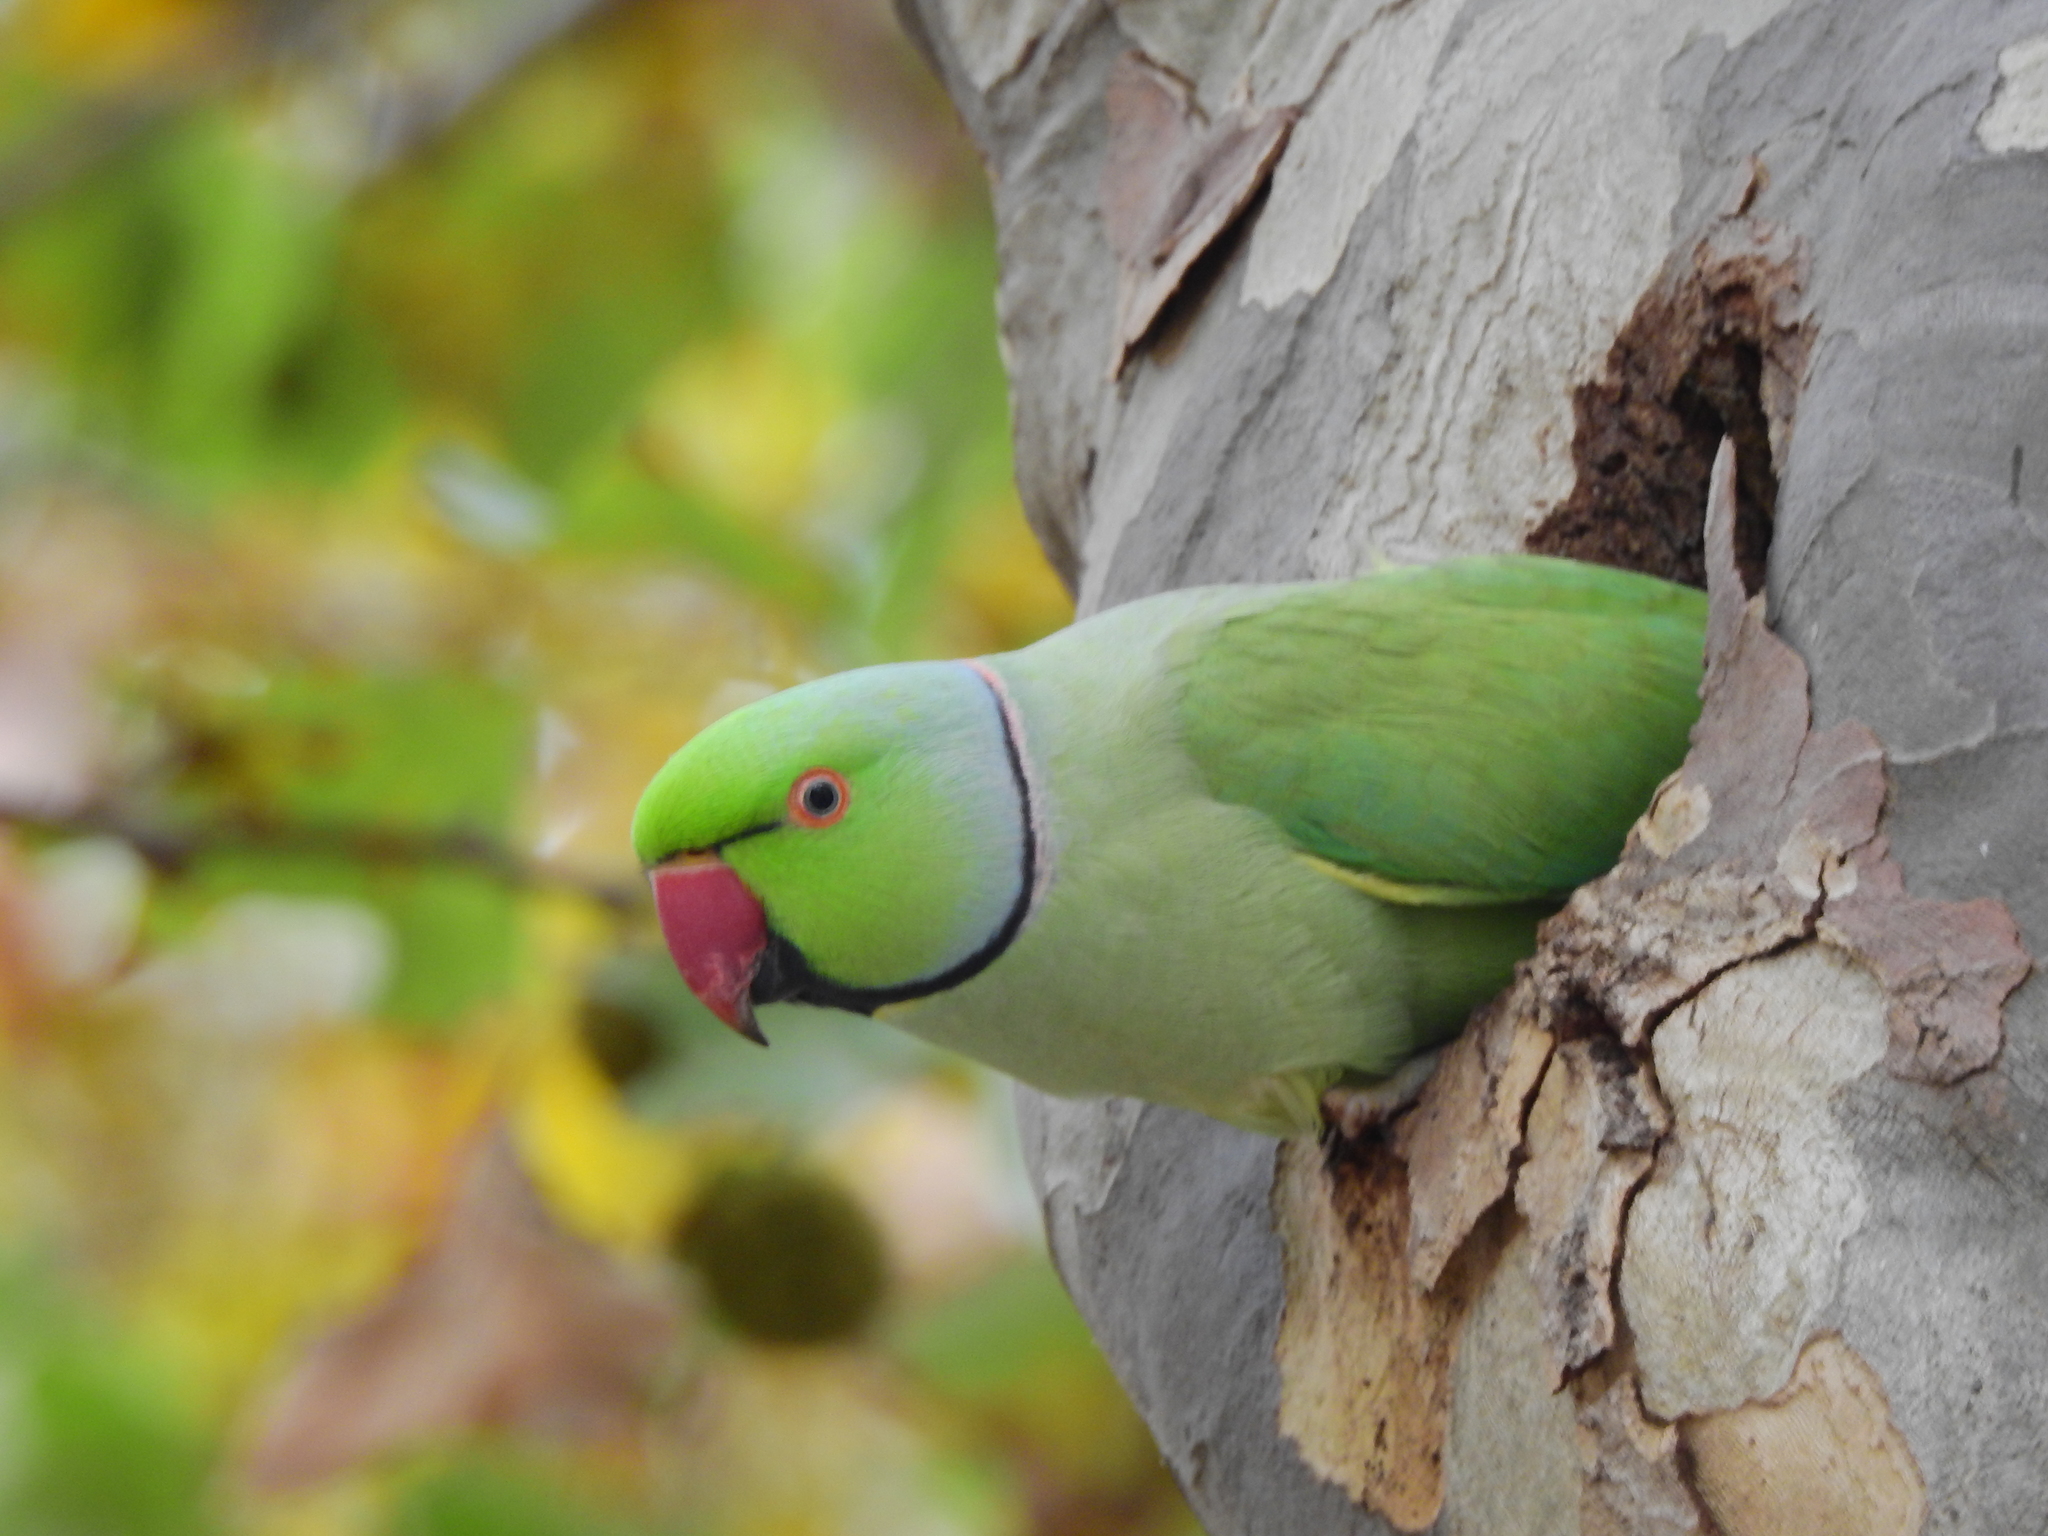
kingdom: Animalia
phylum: Chordata
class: Aves
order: Psittaciformes
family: Psittacidae
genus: Psittacula
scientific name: Psittacula krameri
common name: Rose-ringed parakeet
